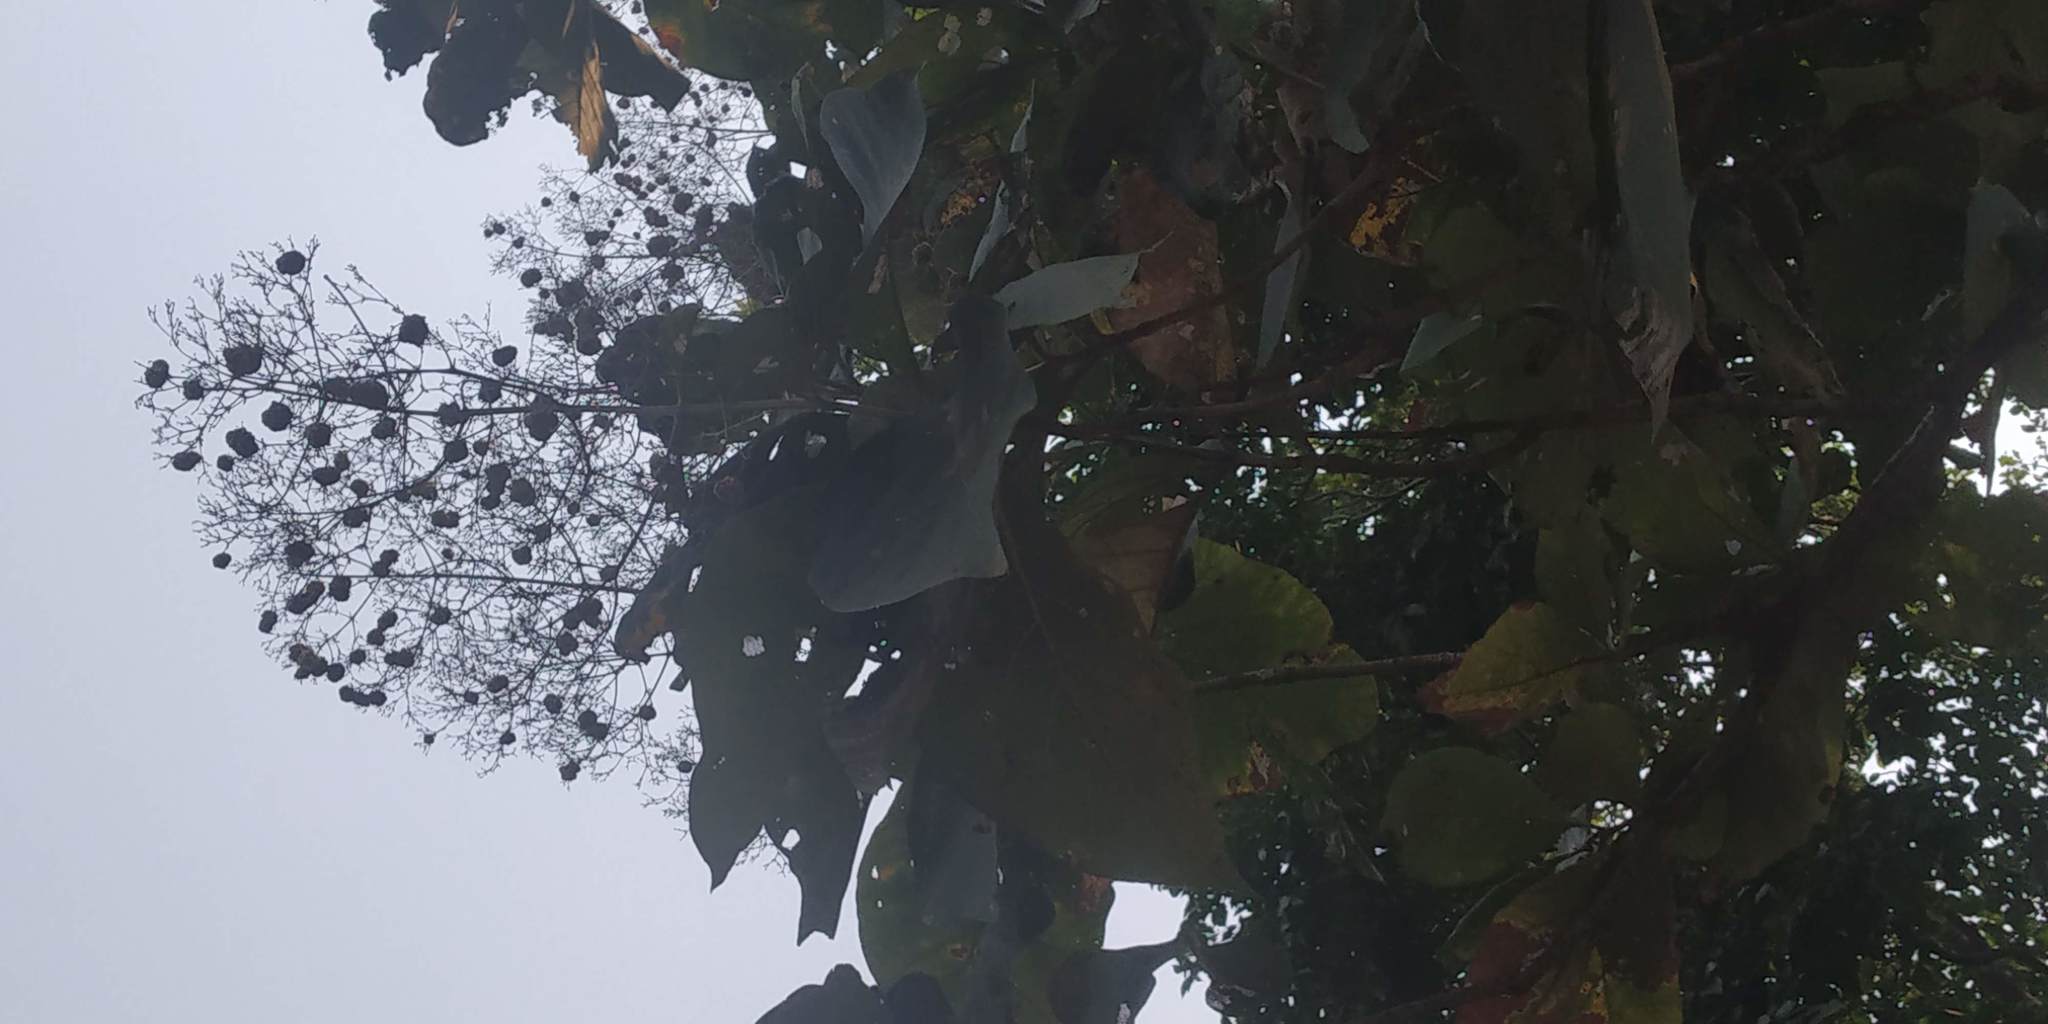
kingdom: Plantae
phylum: Tracheophyta
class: Magnoliopsida
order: Lamiales
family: Lamiaceae
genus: Tectona
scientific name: Tectona grandis
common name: Teak
